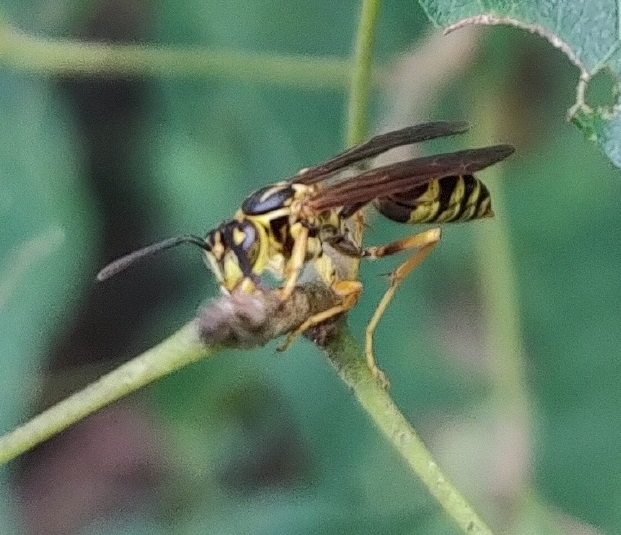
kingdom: Animalia
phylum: Arthropoda
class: Insecta
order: Hymenoptera
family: Vespidae
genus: Agelaia
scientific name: Agelaia multipicta
